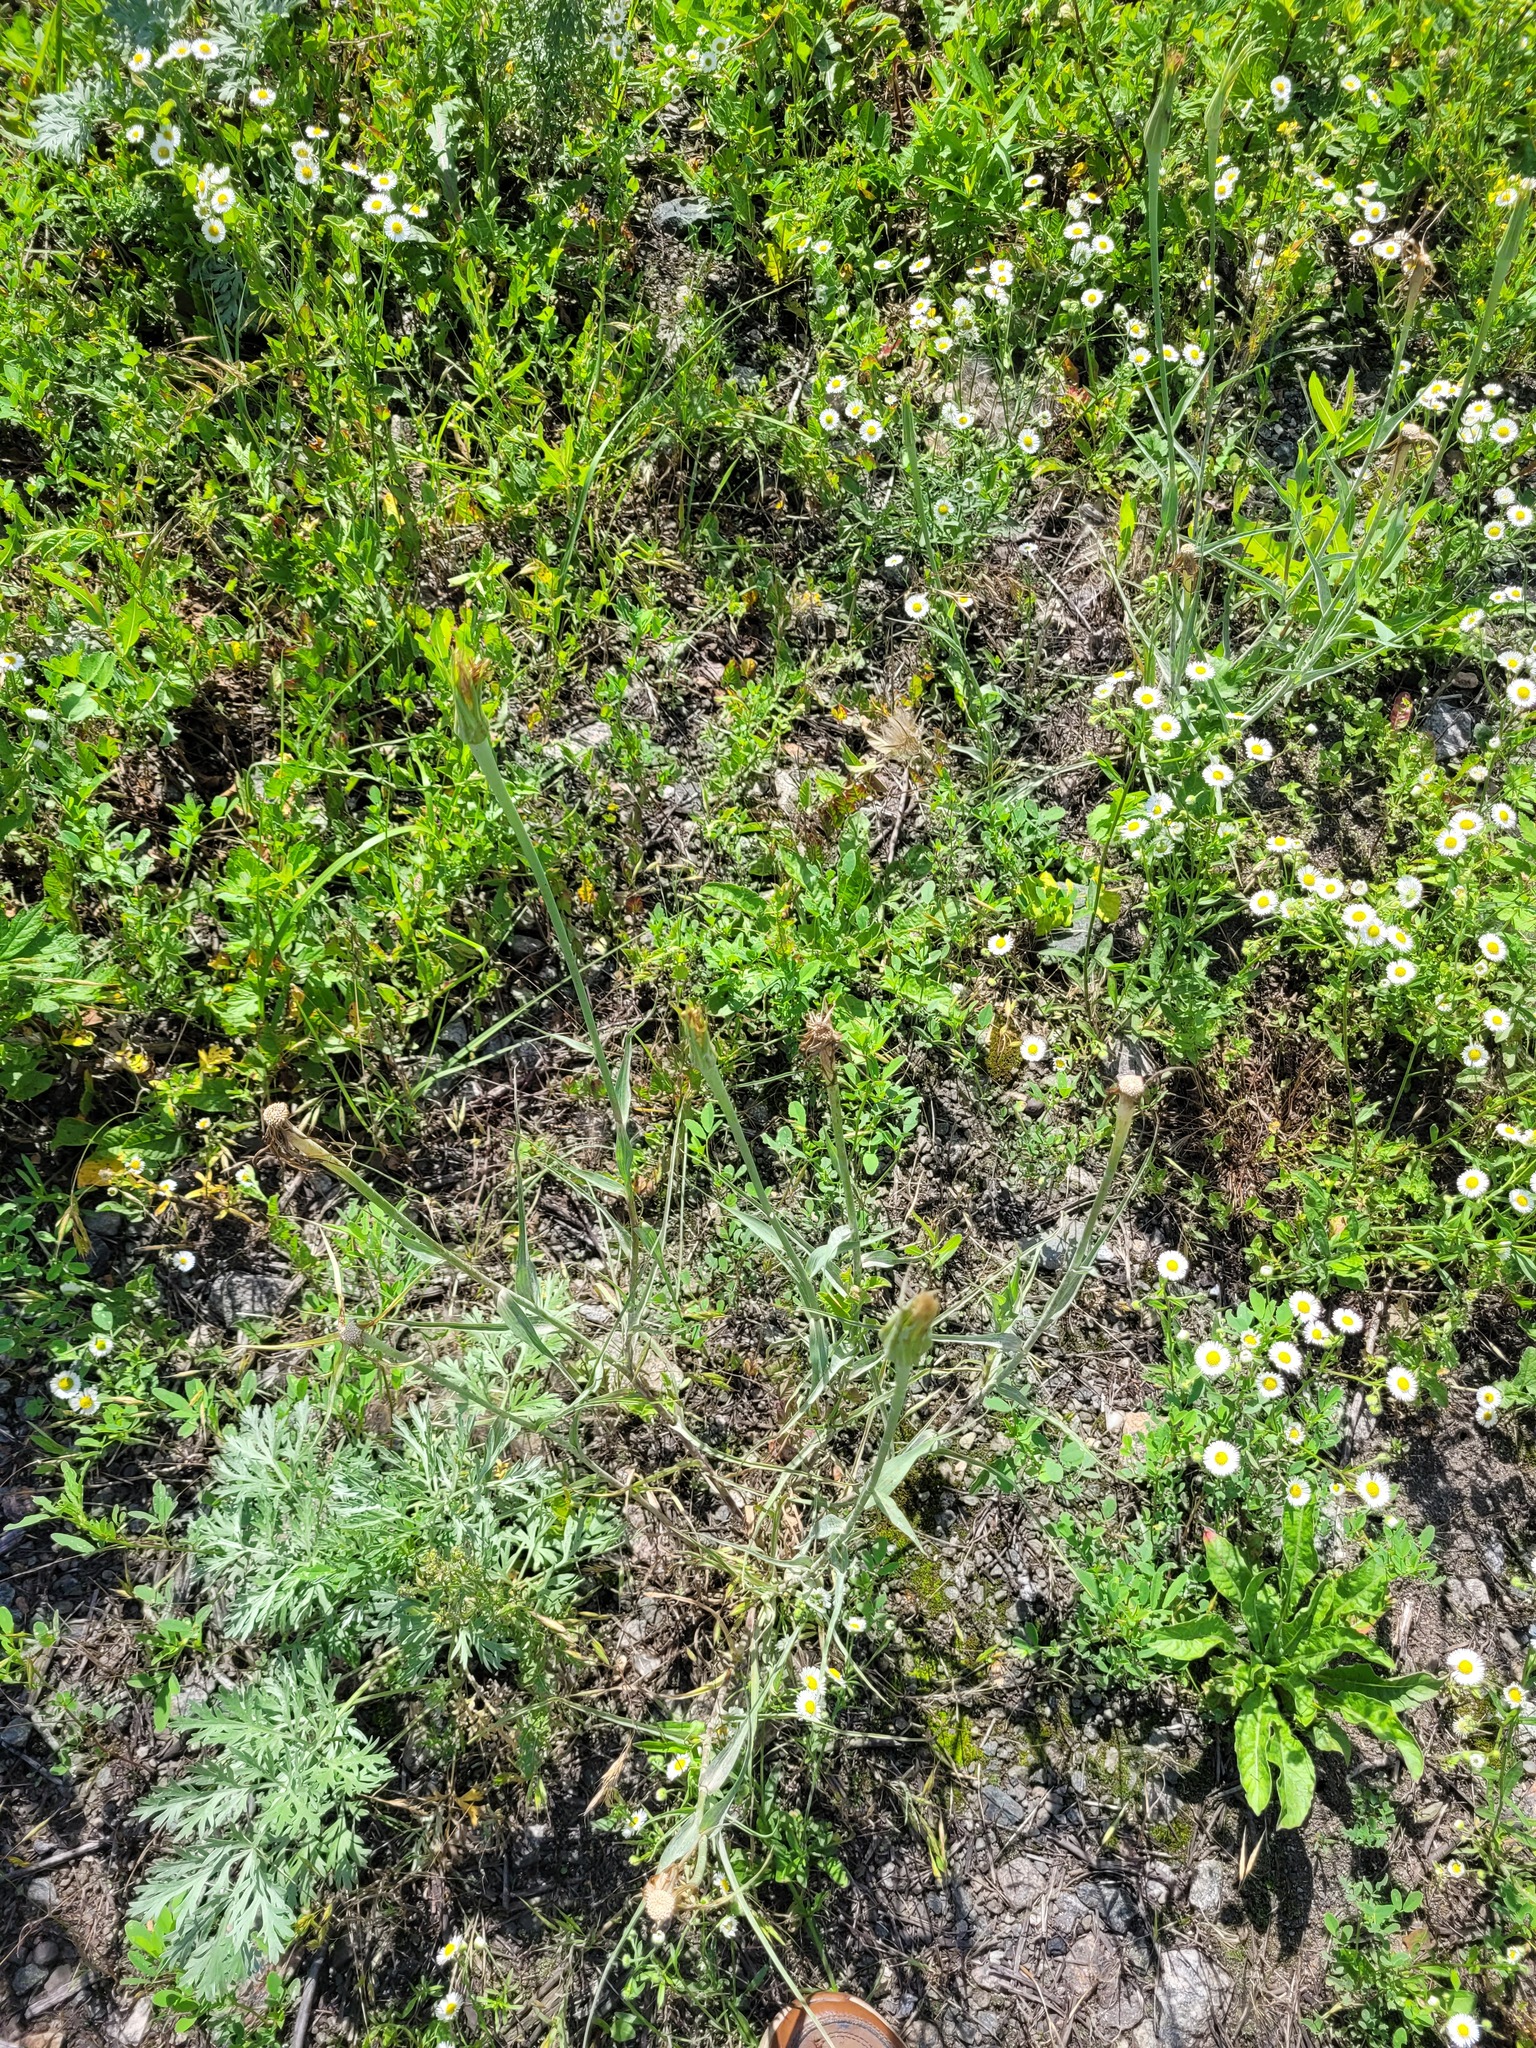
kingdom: Plantae
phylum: Tracheophyta
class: Magnoliopsida
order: Asterales
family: Asteraceae
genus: Tragopogon
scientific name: Tragopogon dubius
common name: Yellow salsify
